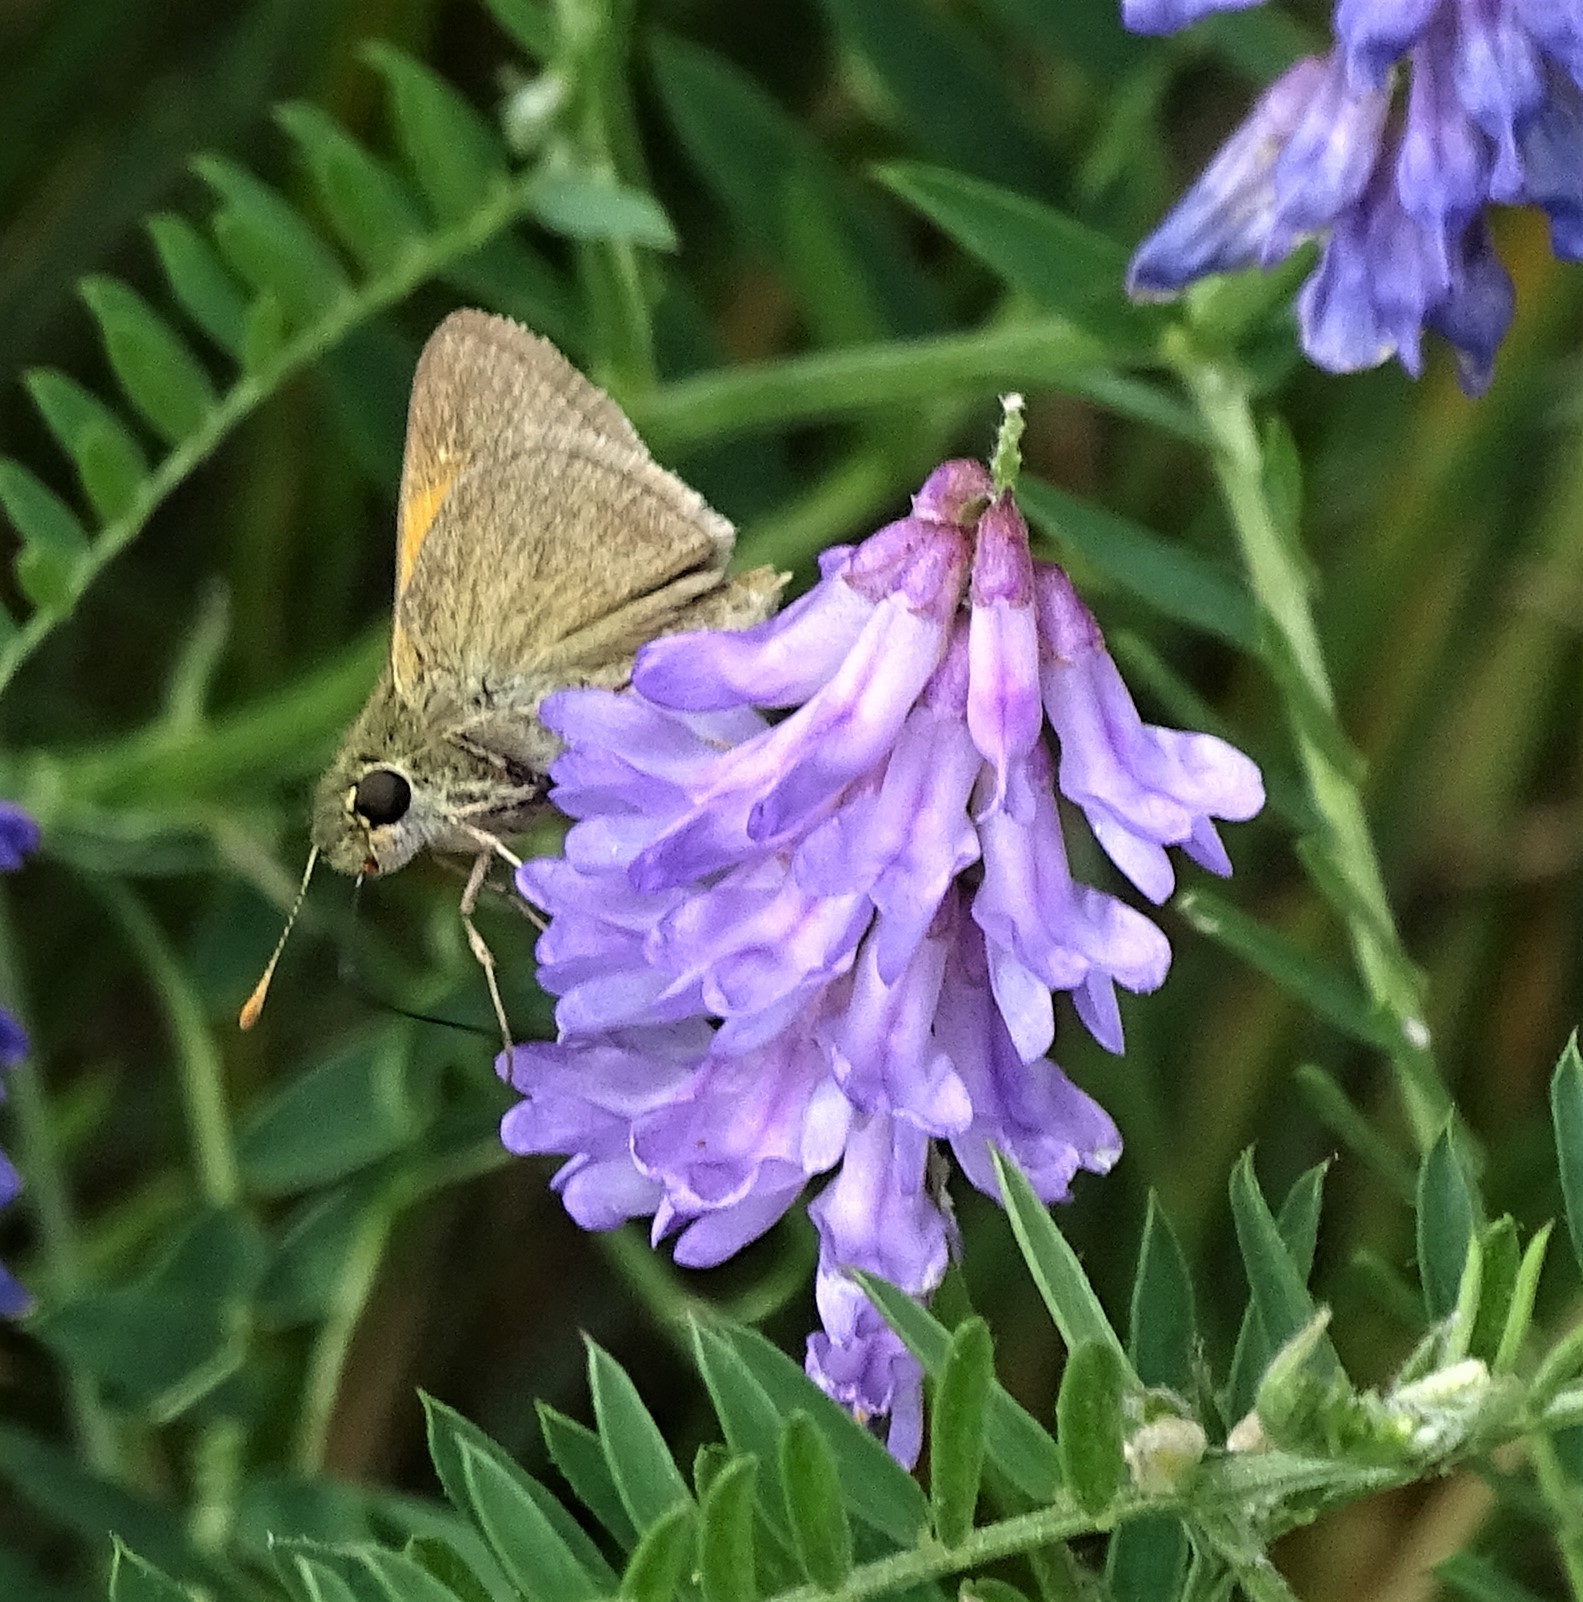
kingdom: Animalia
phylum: Arthropoda
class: Insecta
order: Lepidoptera
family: Hesperiidae
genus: Polites
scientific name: Polites themistocles
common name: Tawny-edged skipper
